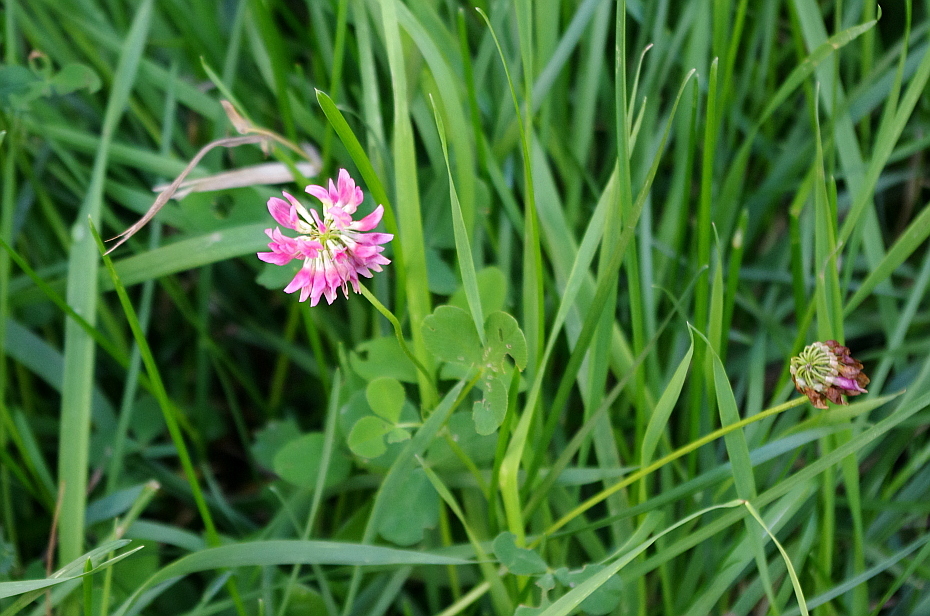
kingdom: Plantae
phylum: Tracheophyta
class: Magnoliopsida
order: Fabales
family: Fabaceae
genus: Trifolium
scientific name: Trifolium hybridum
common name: Alsike clover
